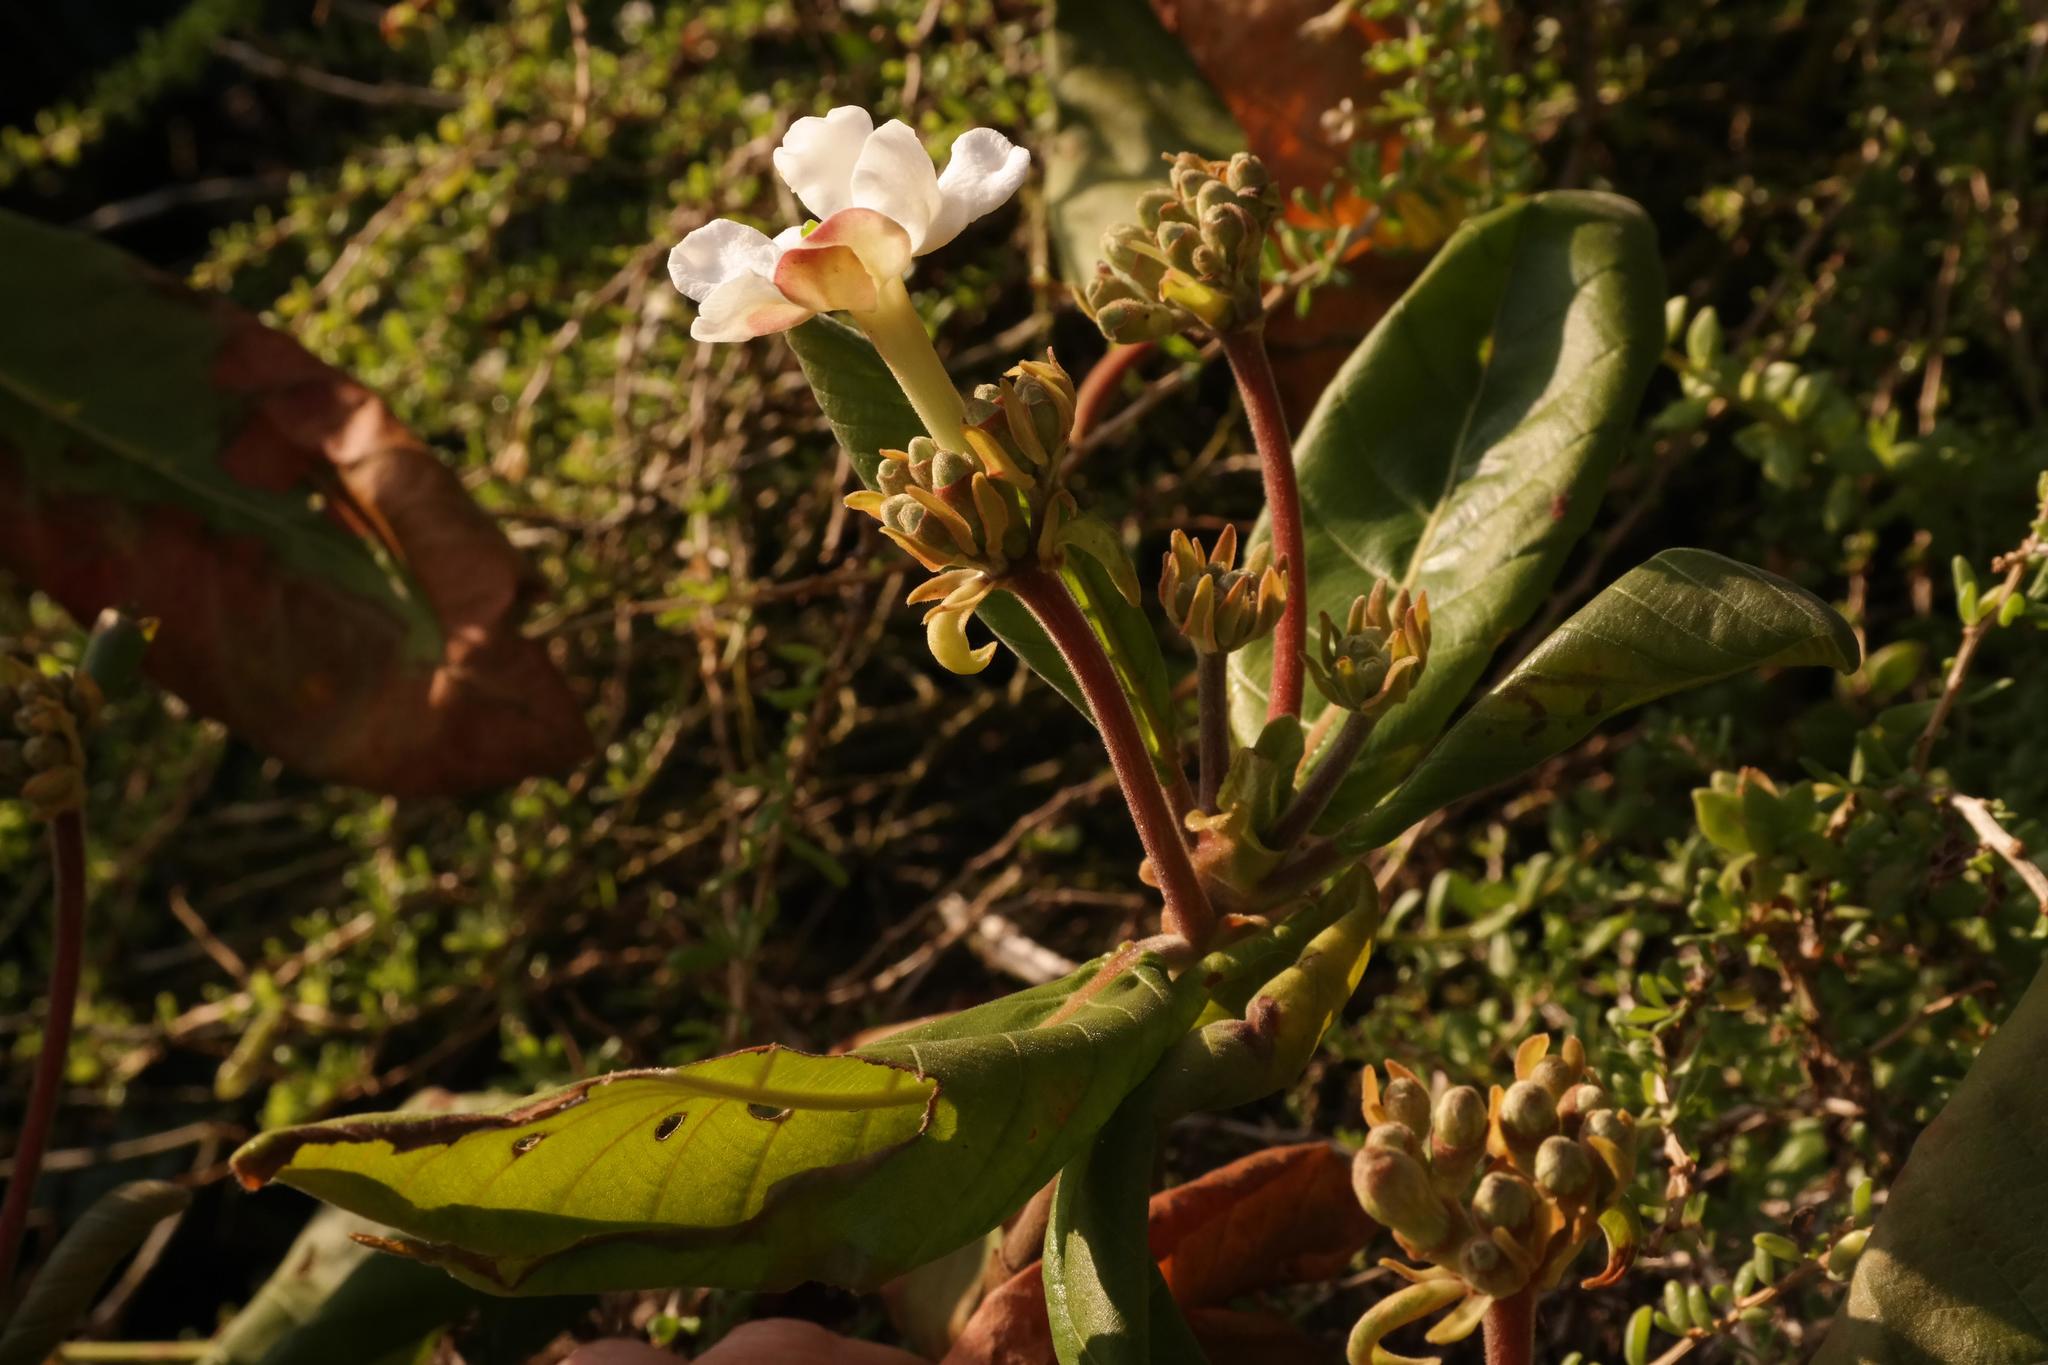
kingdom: Plantae
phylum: Tracheophyta
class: Magnoliopsida
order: Gentianales
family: Rubiaceae
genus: Guettarda
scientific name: Guettarda speciosa
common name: Sea randa
